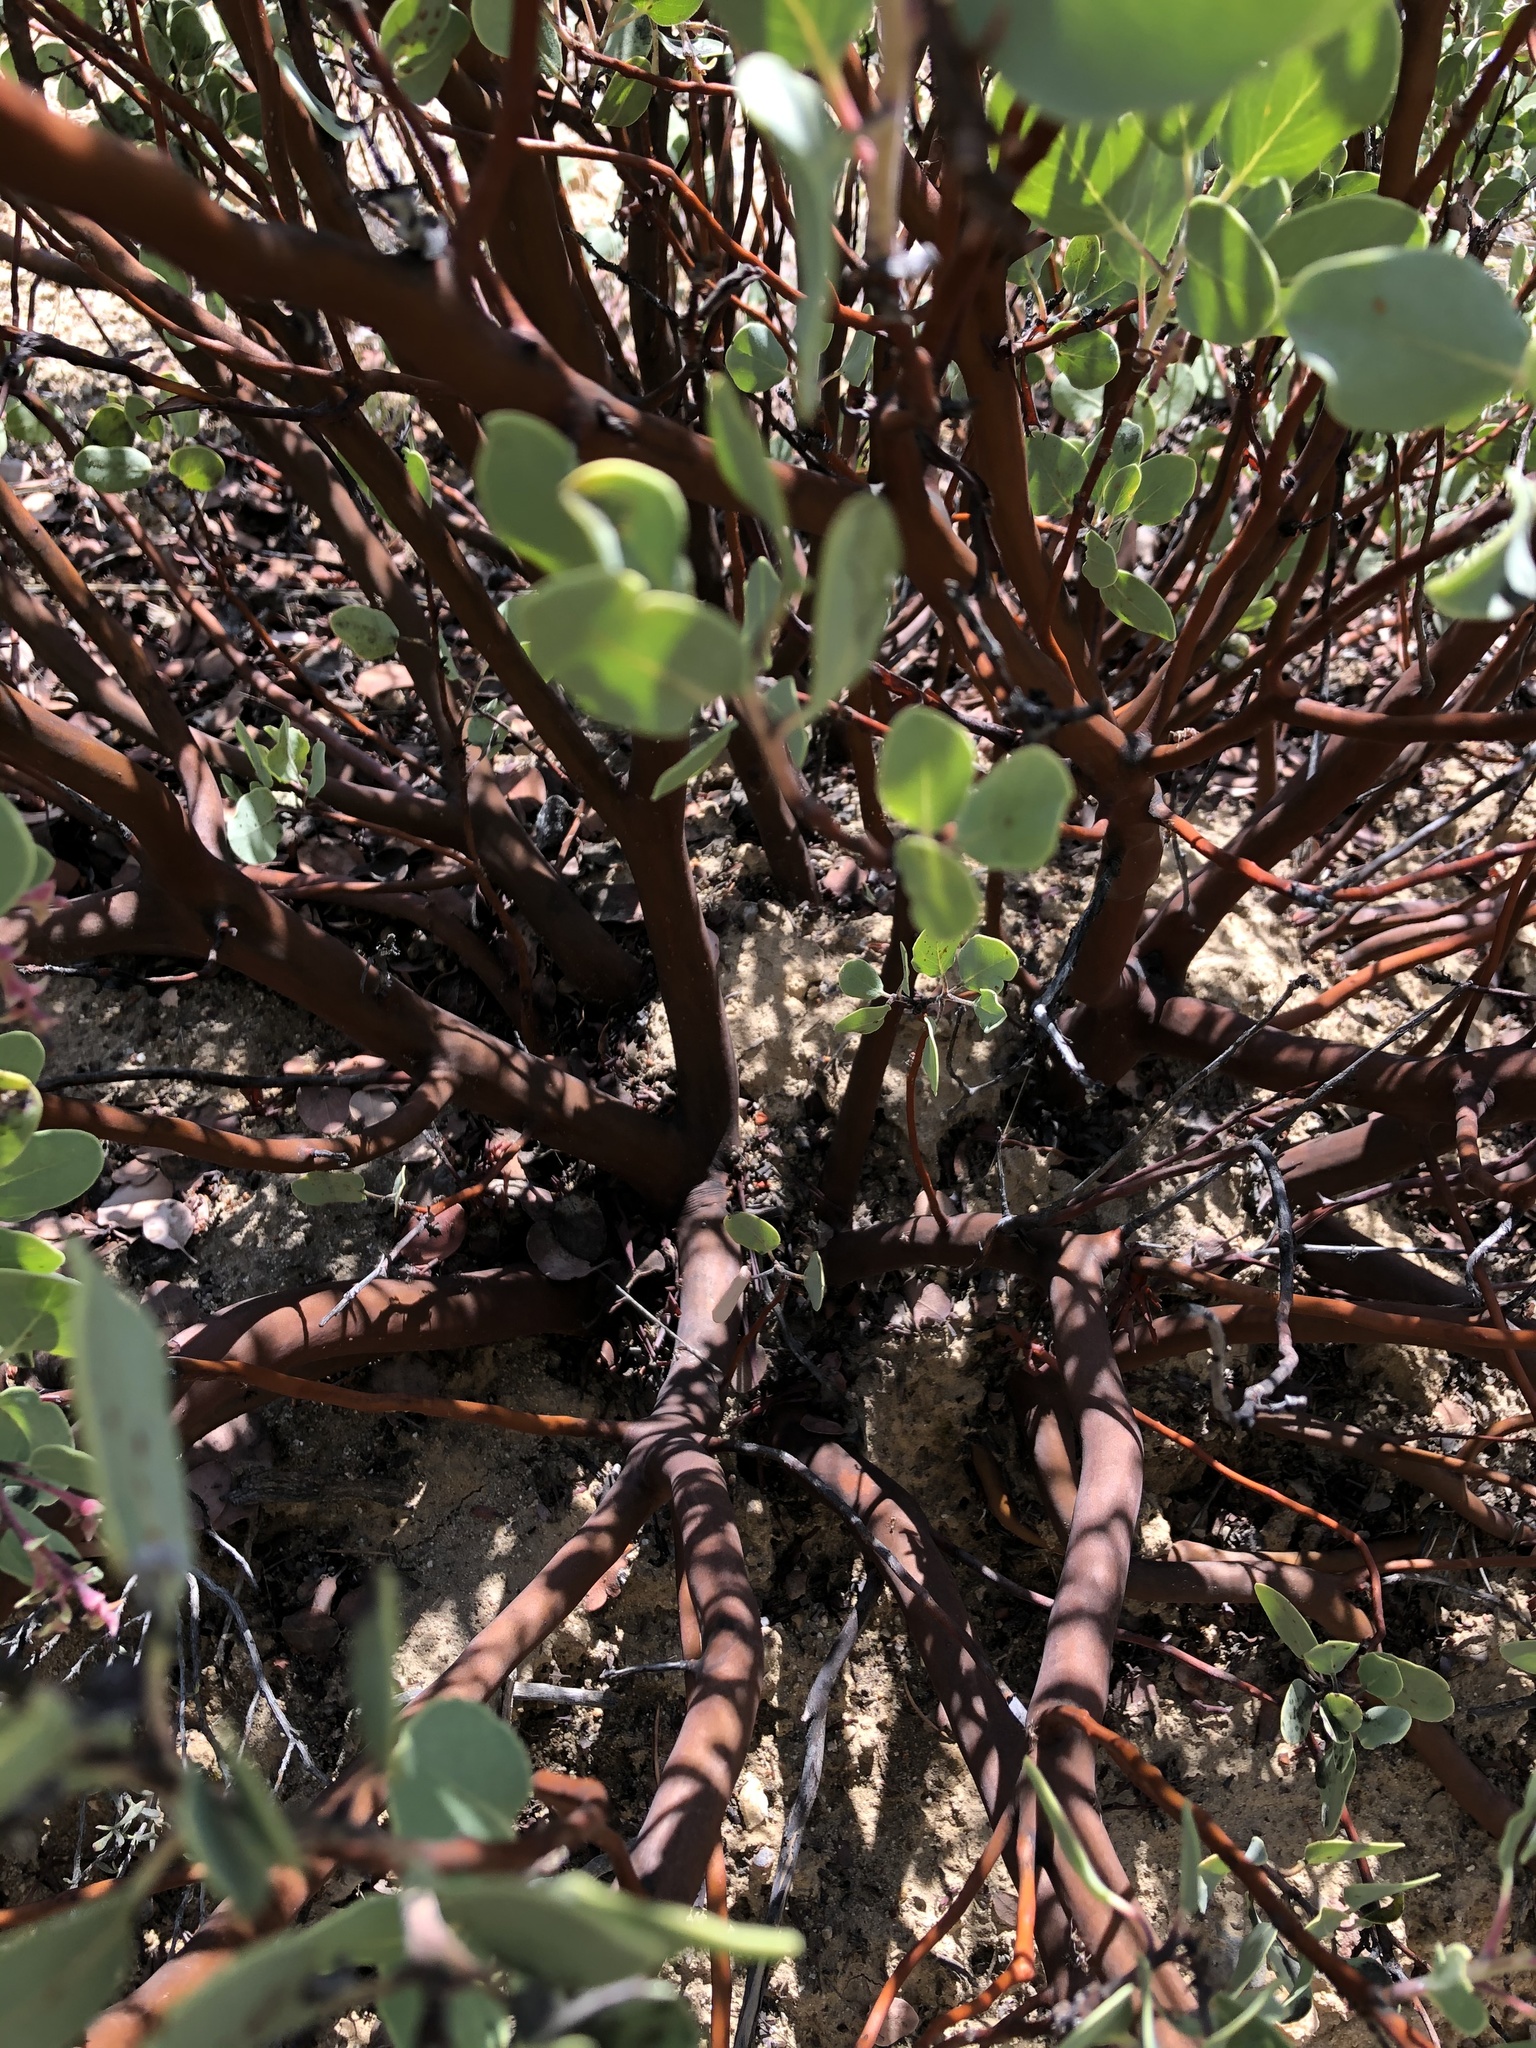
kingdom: Plantae
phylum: Tracheophyta
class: Magnoliopsida
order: Ericales
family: Ericaceae
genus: Arctostaphylos
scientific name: Arctostaphylos glauca
